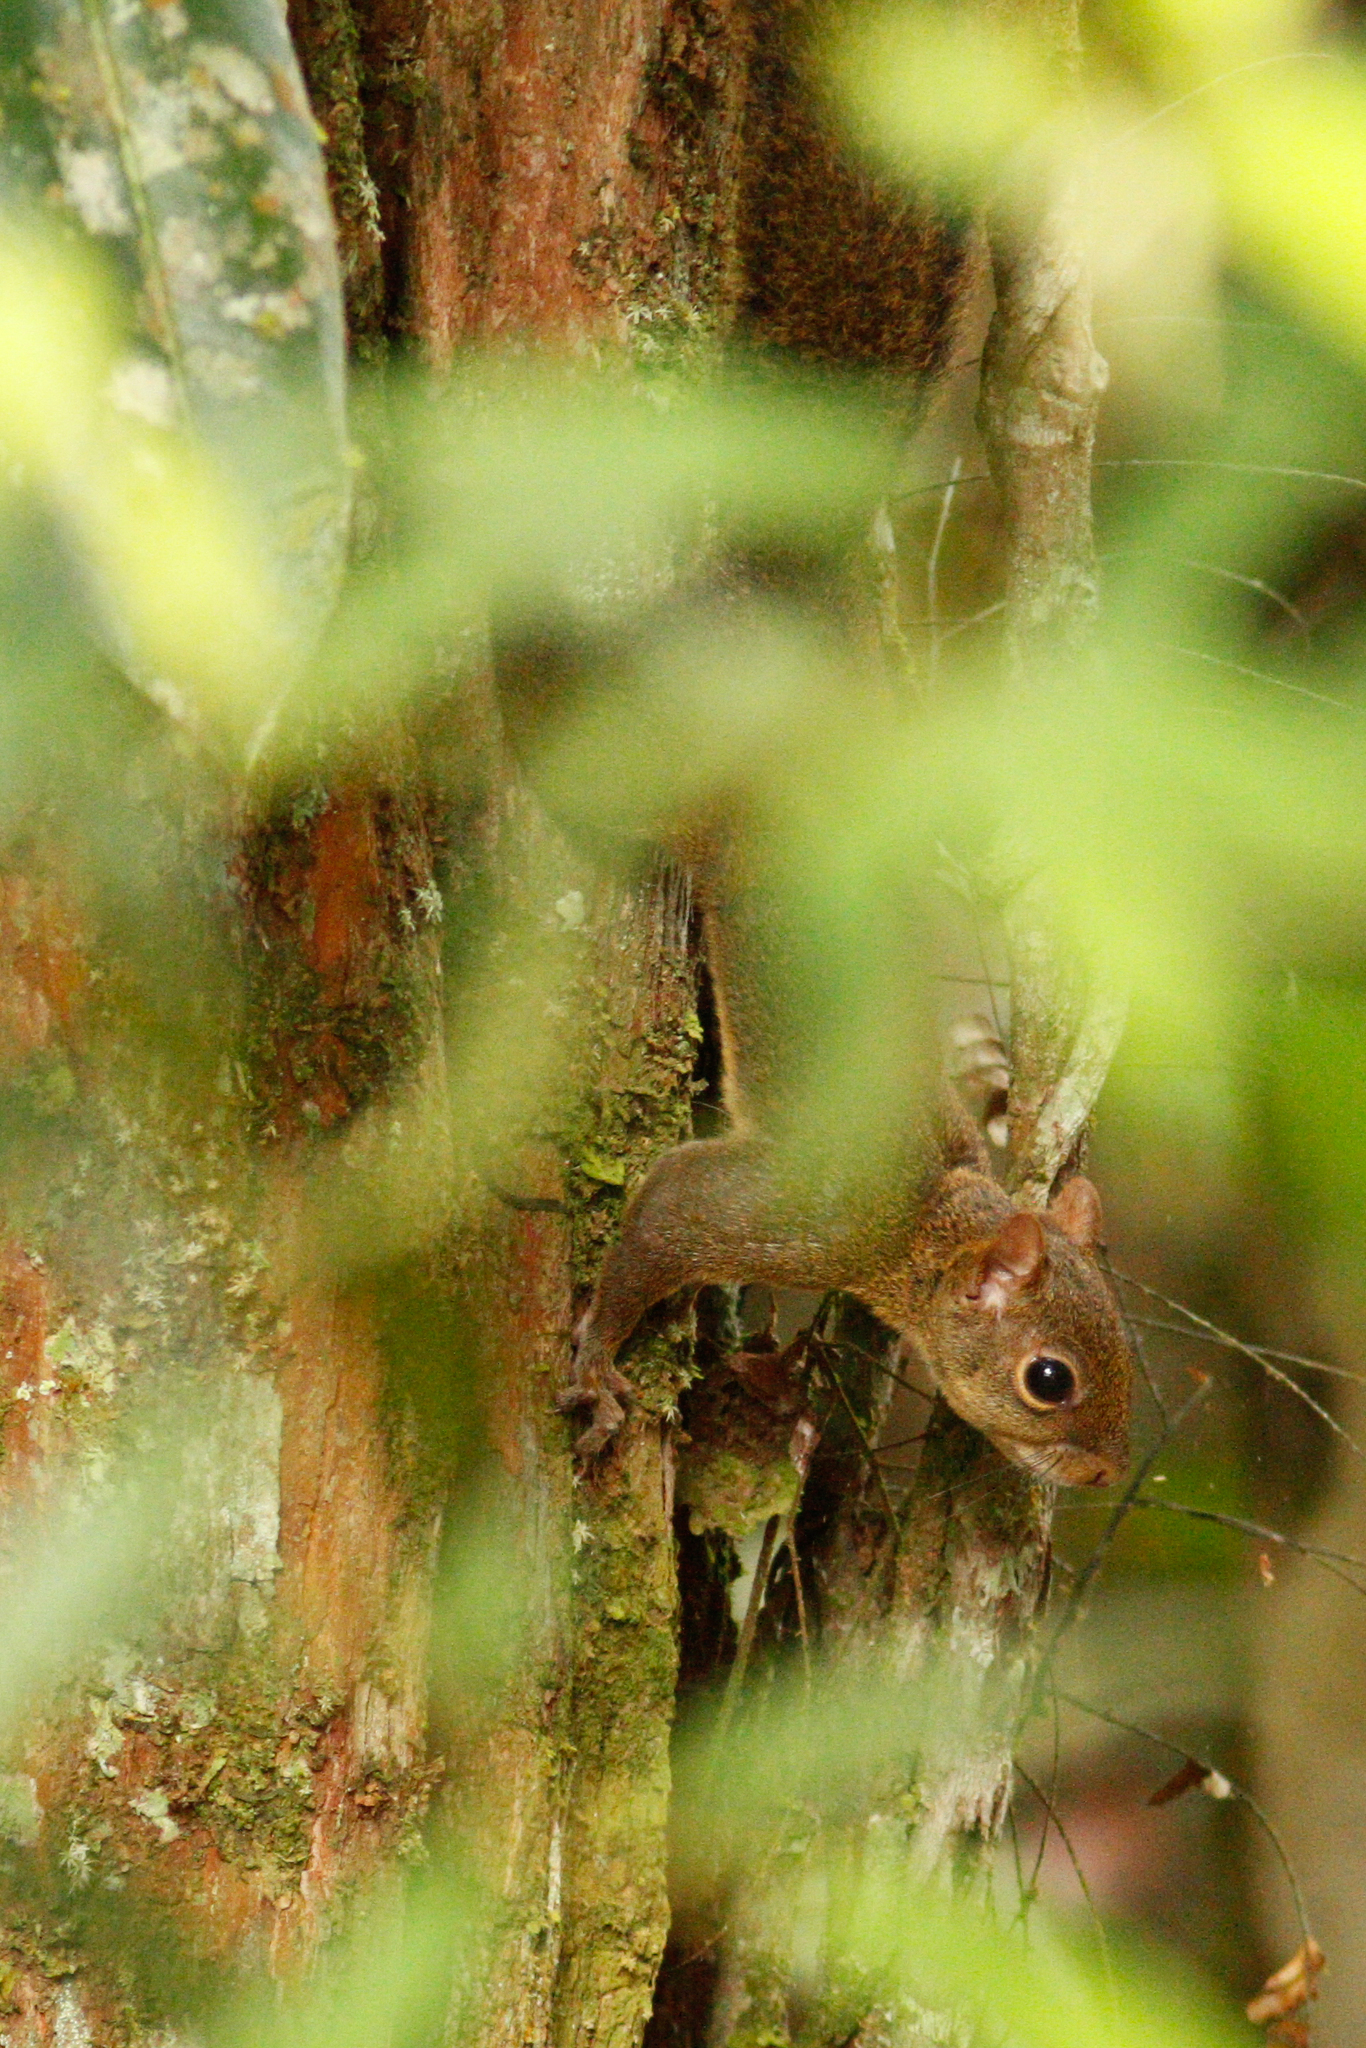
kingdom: Animalia
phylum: Chordata
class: Mammalia
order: Rodentia
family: Sciuridae
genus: Sciurus
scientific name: Sciurus aestuans
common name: Guianan squirrel
